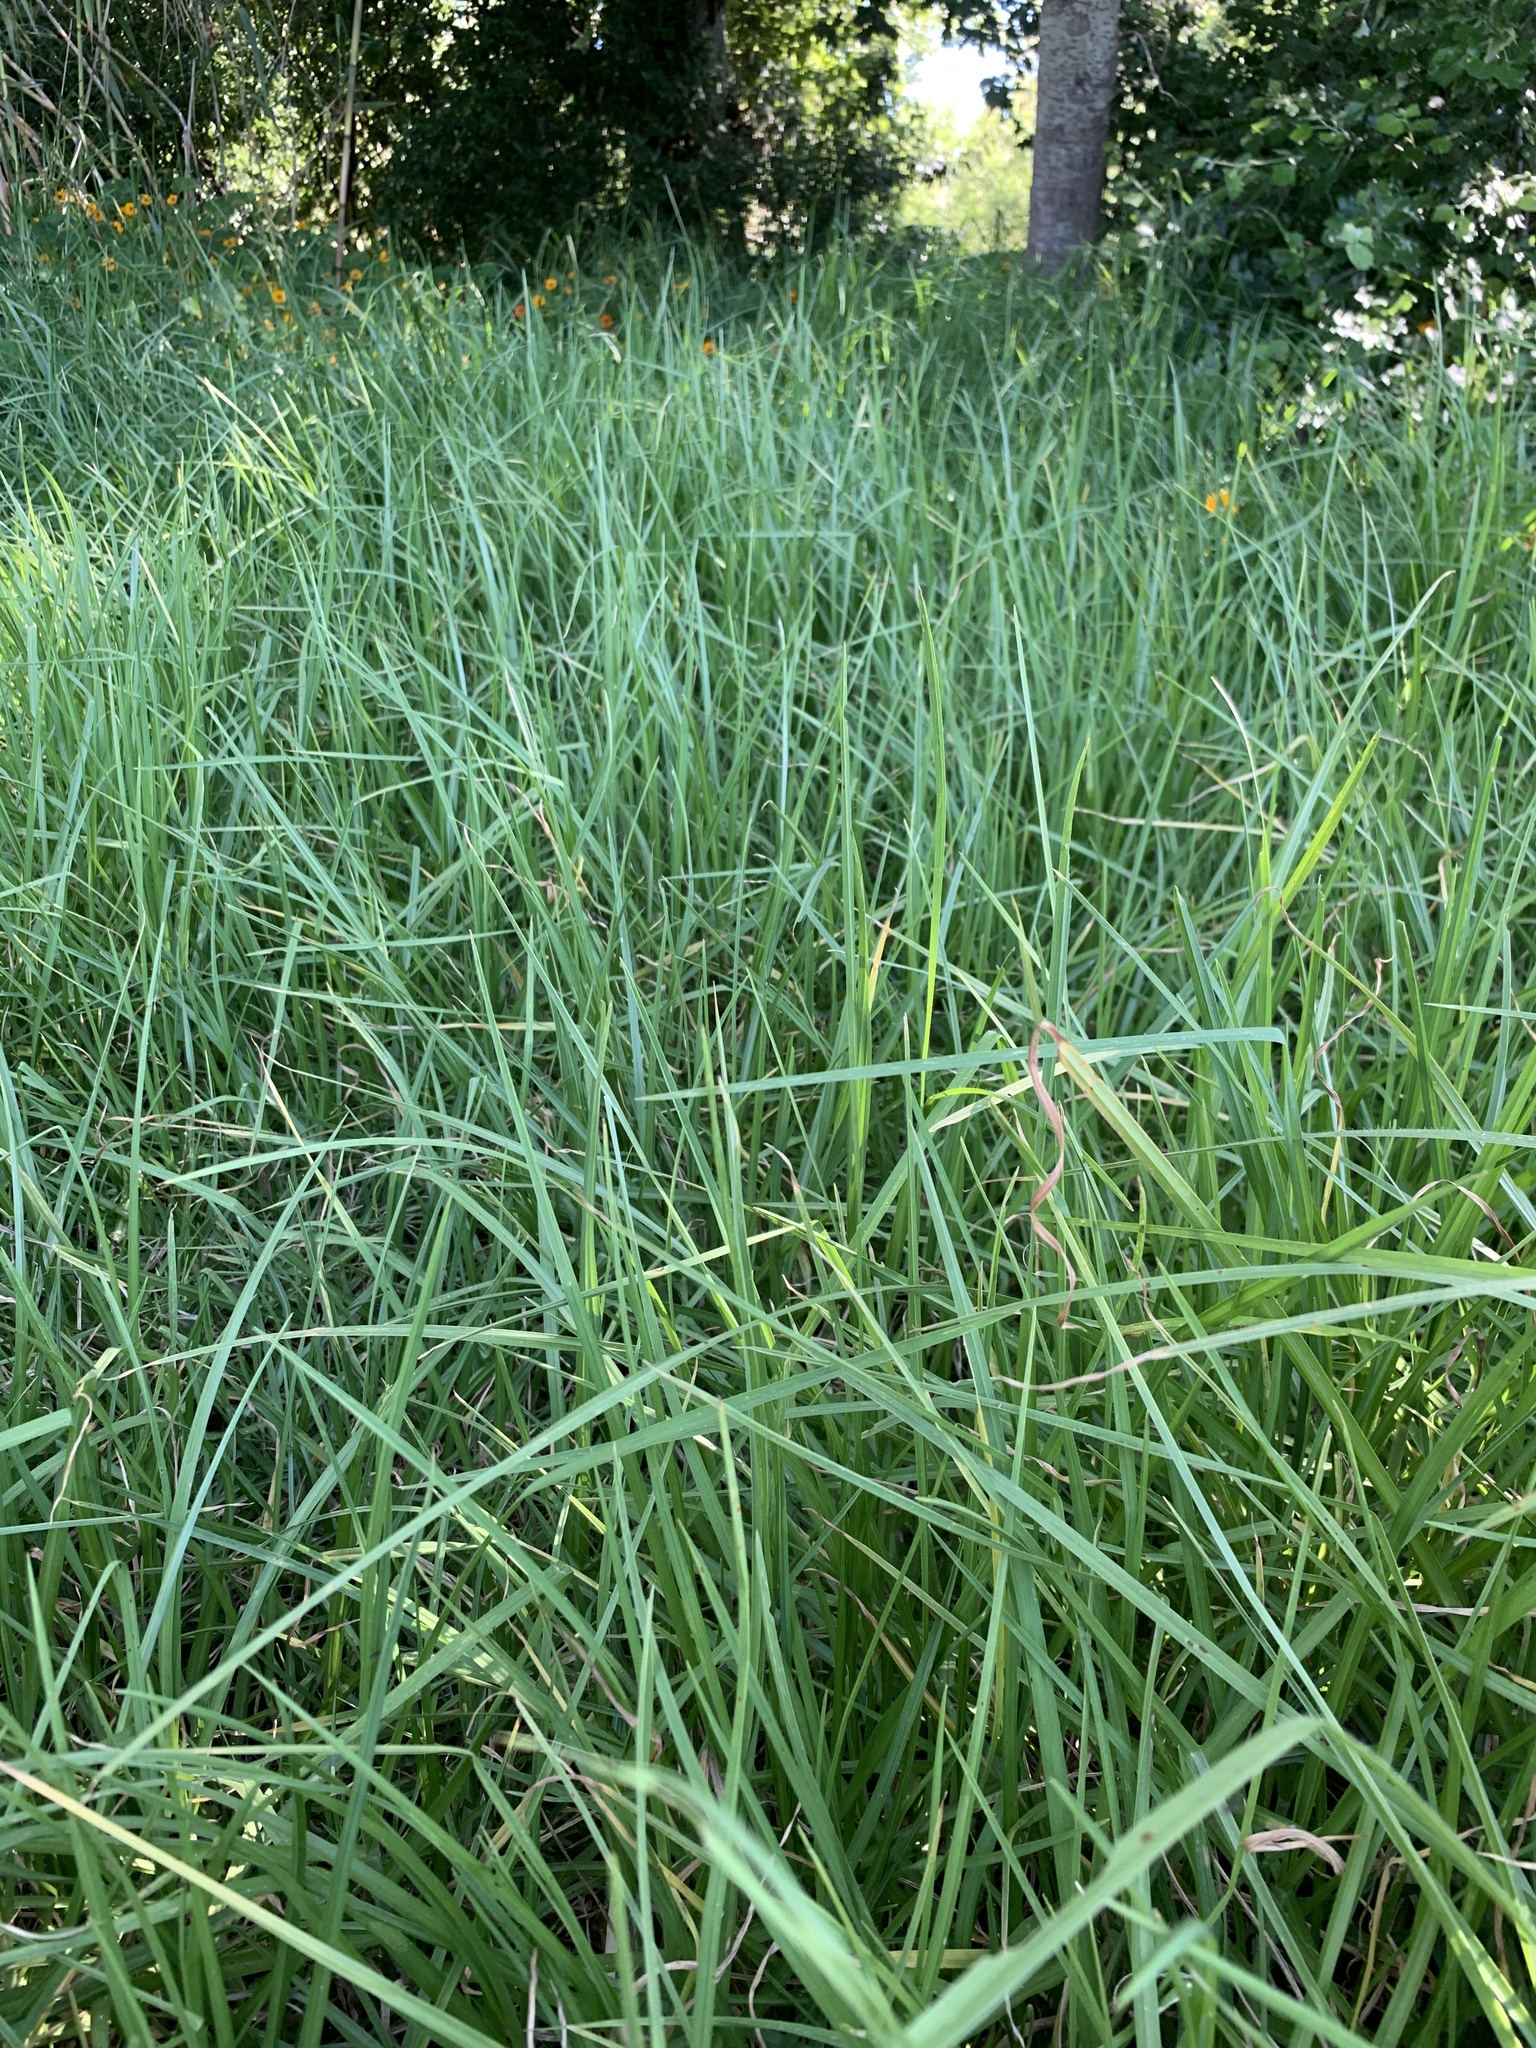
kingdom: Plantae
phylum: Tracheophyta
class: Liliopsida
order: Poales
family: Poaceae
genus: Cenchrus
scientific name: Cenchrus clandestinus
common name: Kikuyugrass
